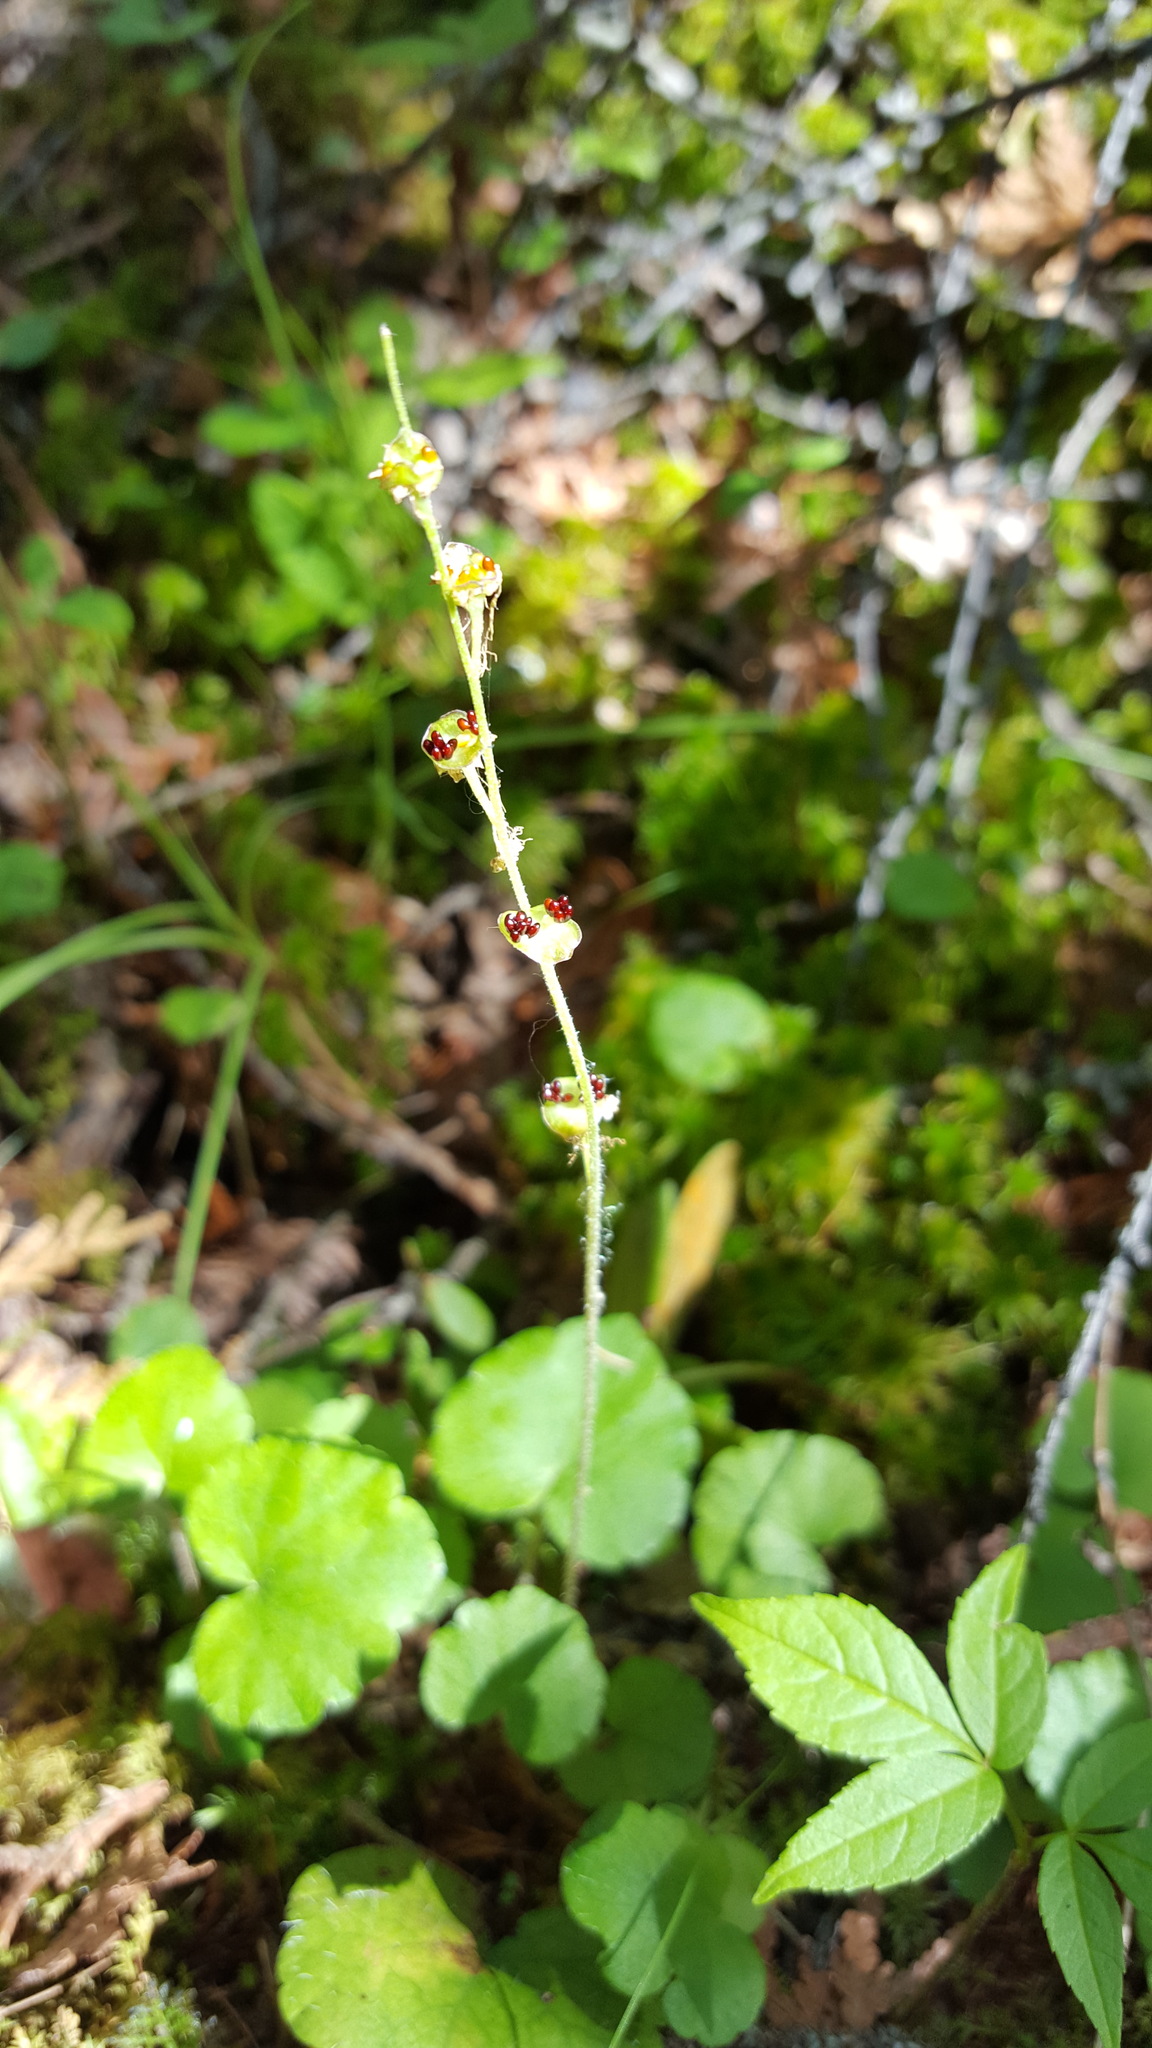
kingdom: Plantae
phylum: Tracheophyta
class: Magnoliopsida
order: Saxifragales
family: Saxifragaceae
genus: Mitella
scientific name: Mitella nuda
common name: Bare-stemmed bishop's-cap
